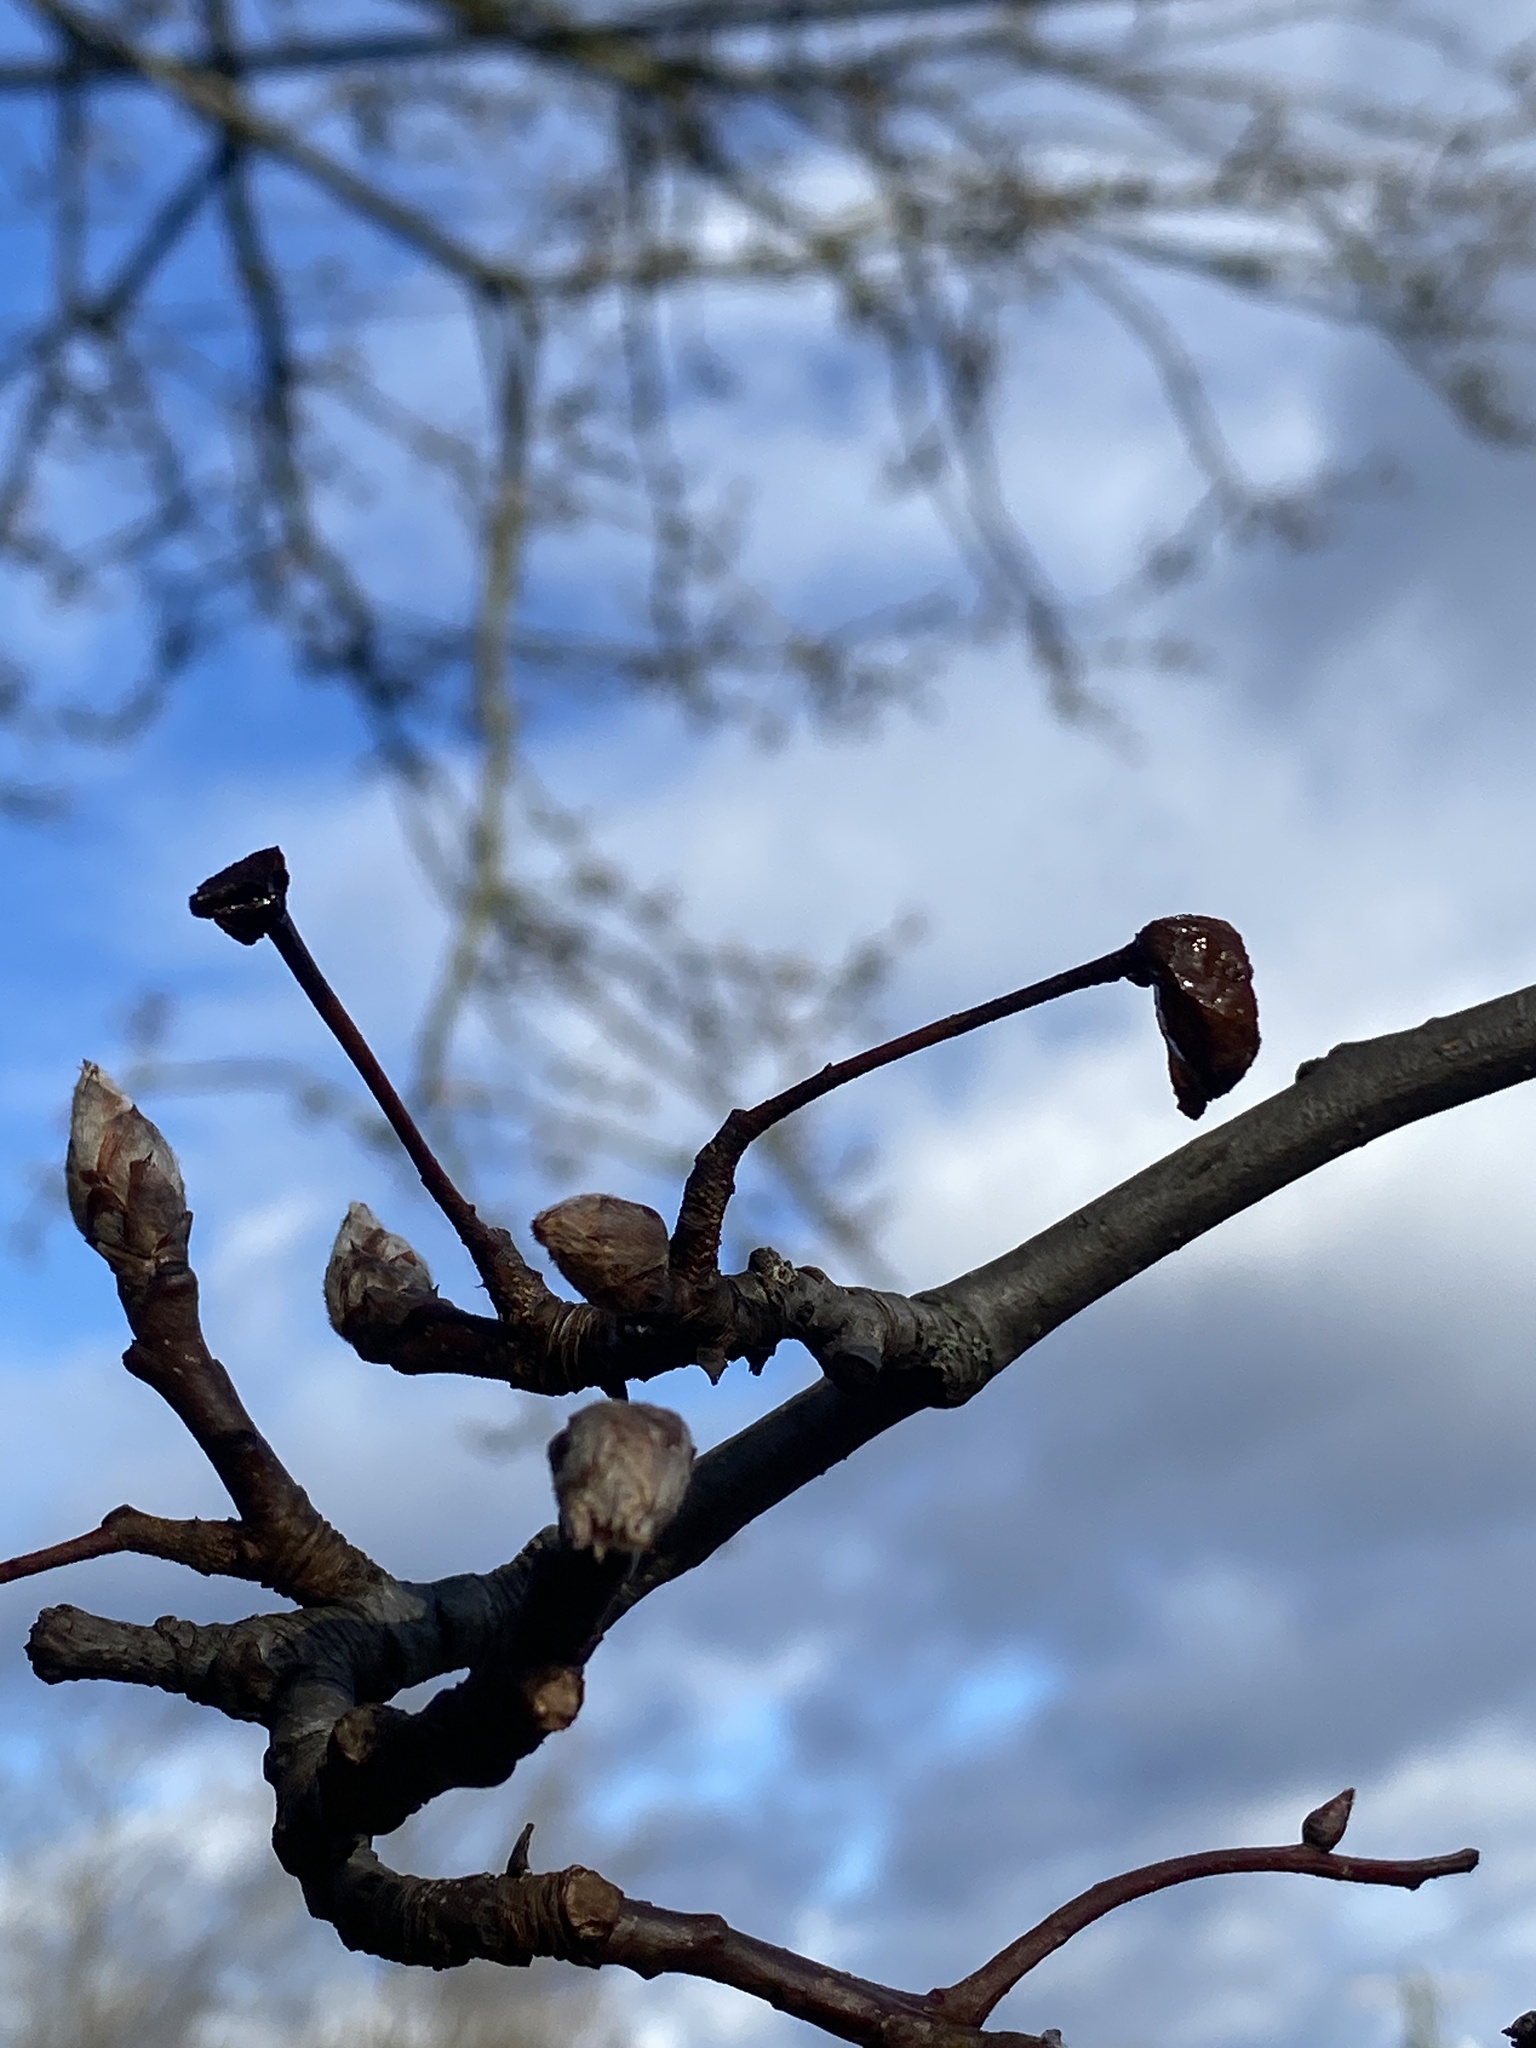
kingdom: Plantae
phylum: Tracheophyta
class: Magnoliopsida
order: Rosales
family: Rosaceae
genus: Pyrus
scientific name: Pyrus calleryana
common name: Callery pear
